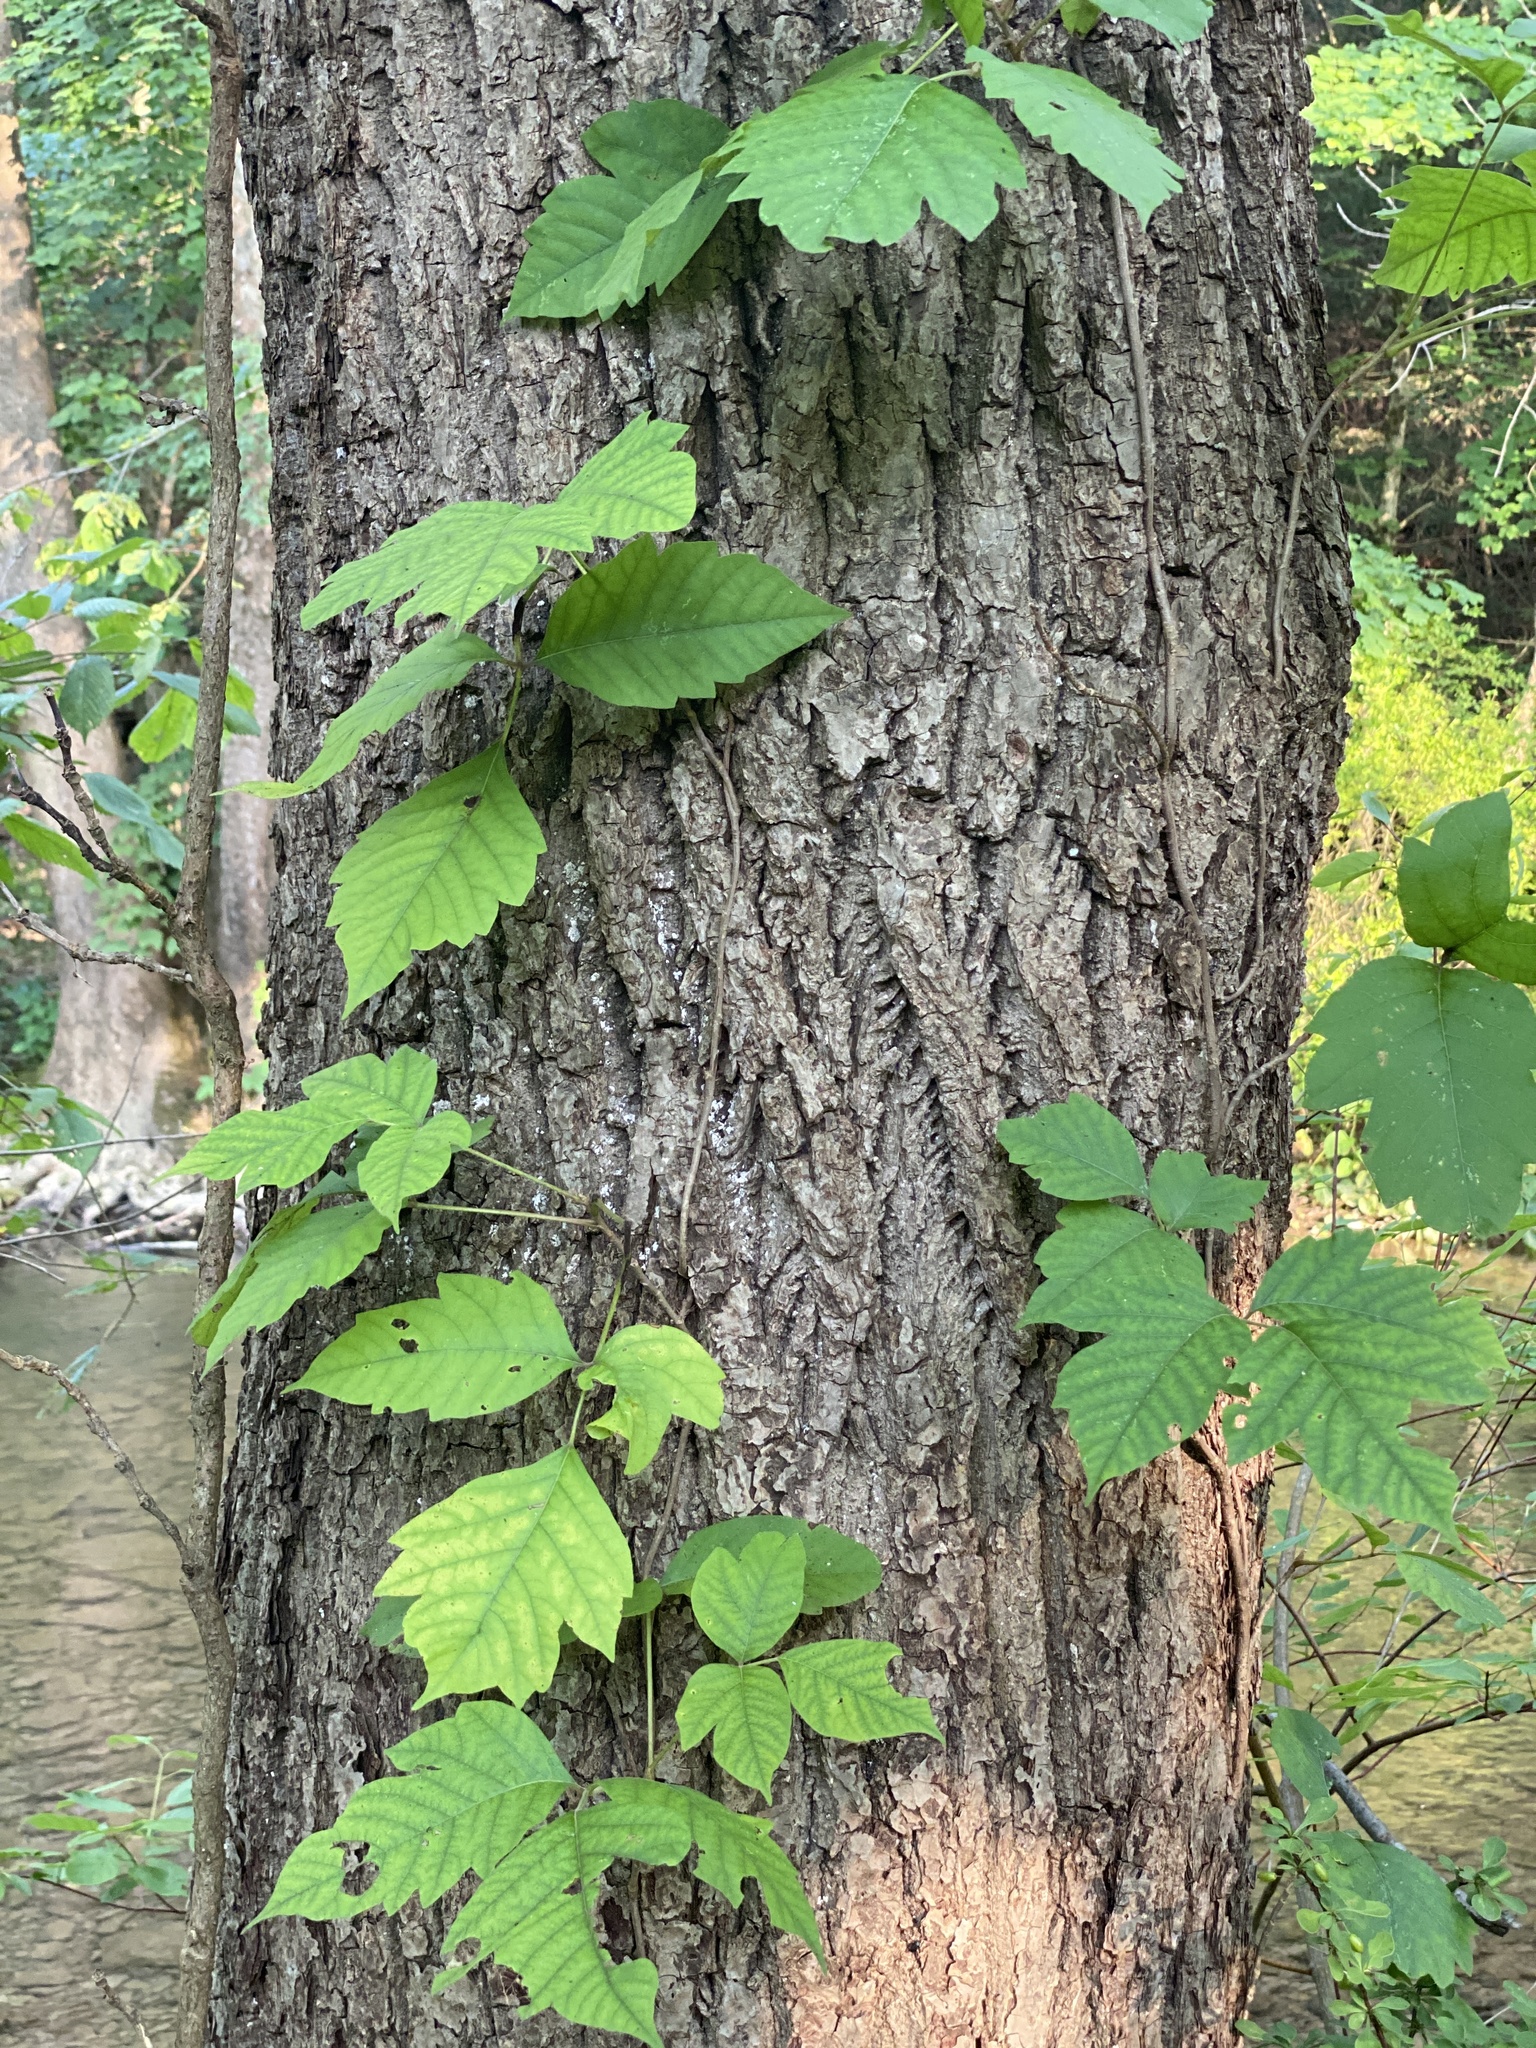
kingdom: Plantae
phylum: Tracheophyta
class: Magnoliopsida
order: Sapindales
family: Anacardiaceae
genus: Toxicodendron
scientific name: Toxicodendron radicans
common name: Poison ivy
